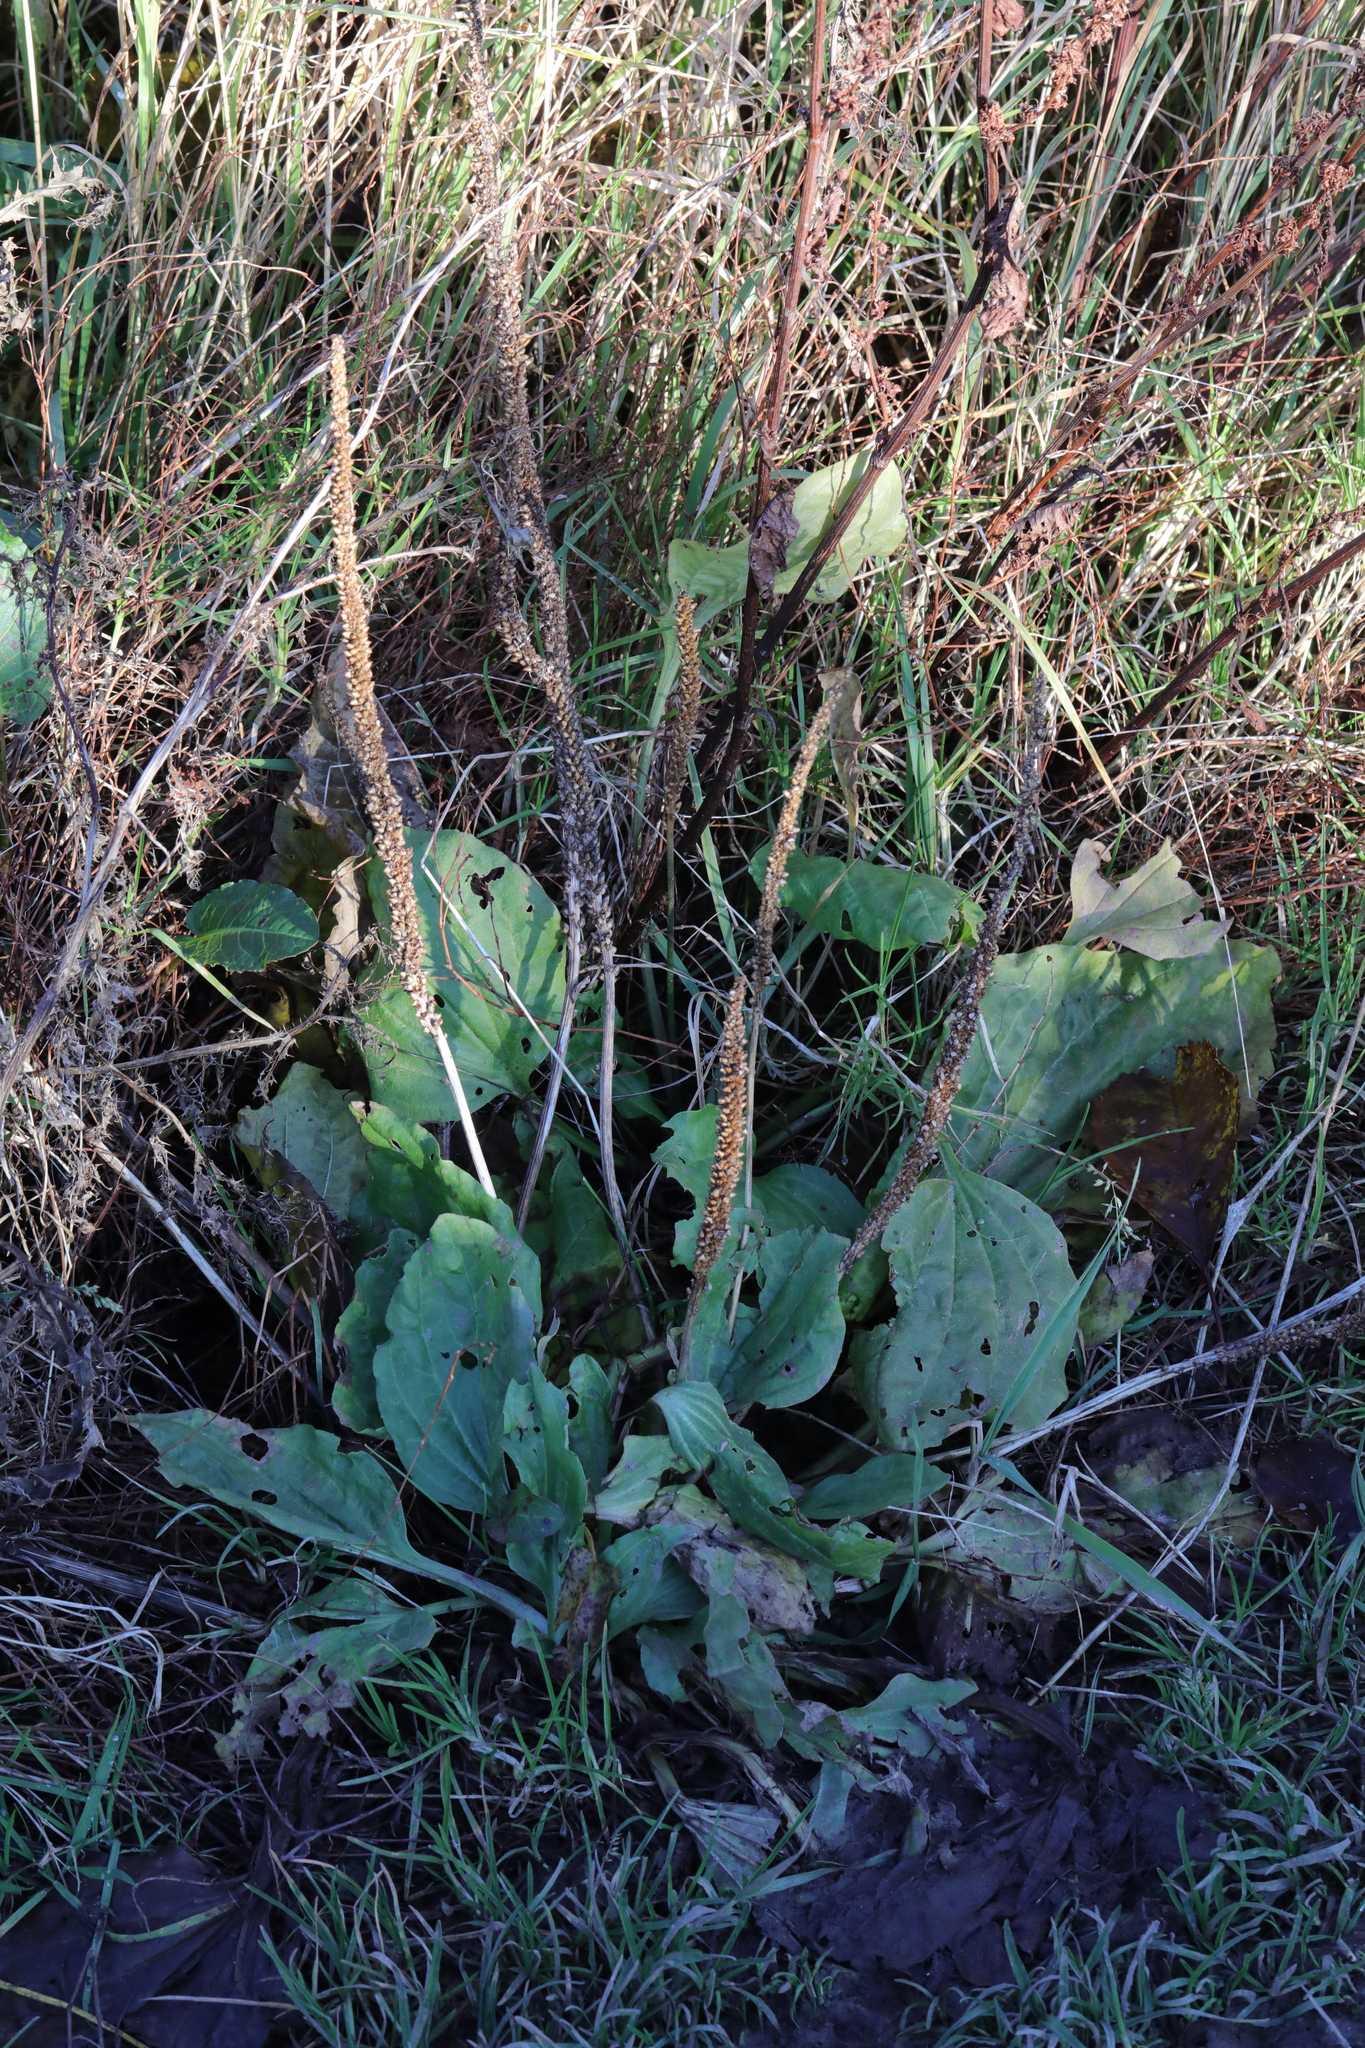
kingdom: Plantae
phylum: Tracheophyta
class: Magnoliopsida
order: Lamiales
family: Plantaginaceae
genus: Plantago
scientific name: Plantago major
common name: Common plantain
